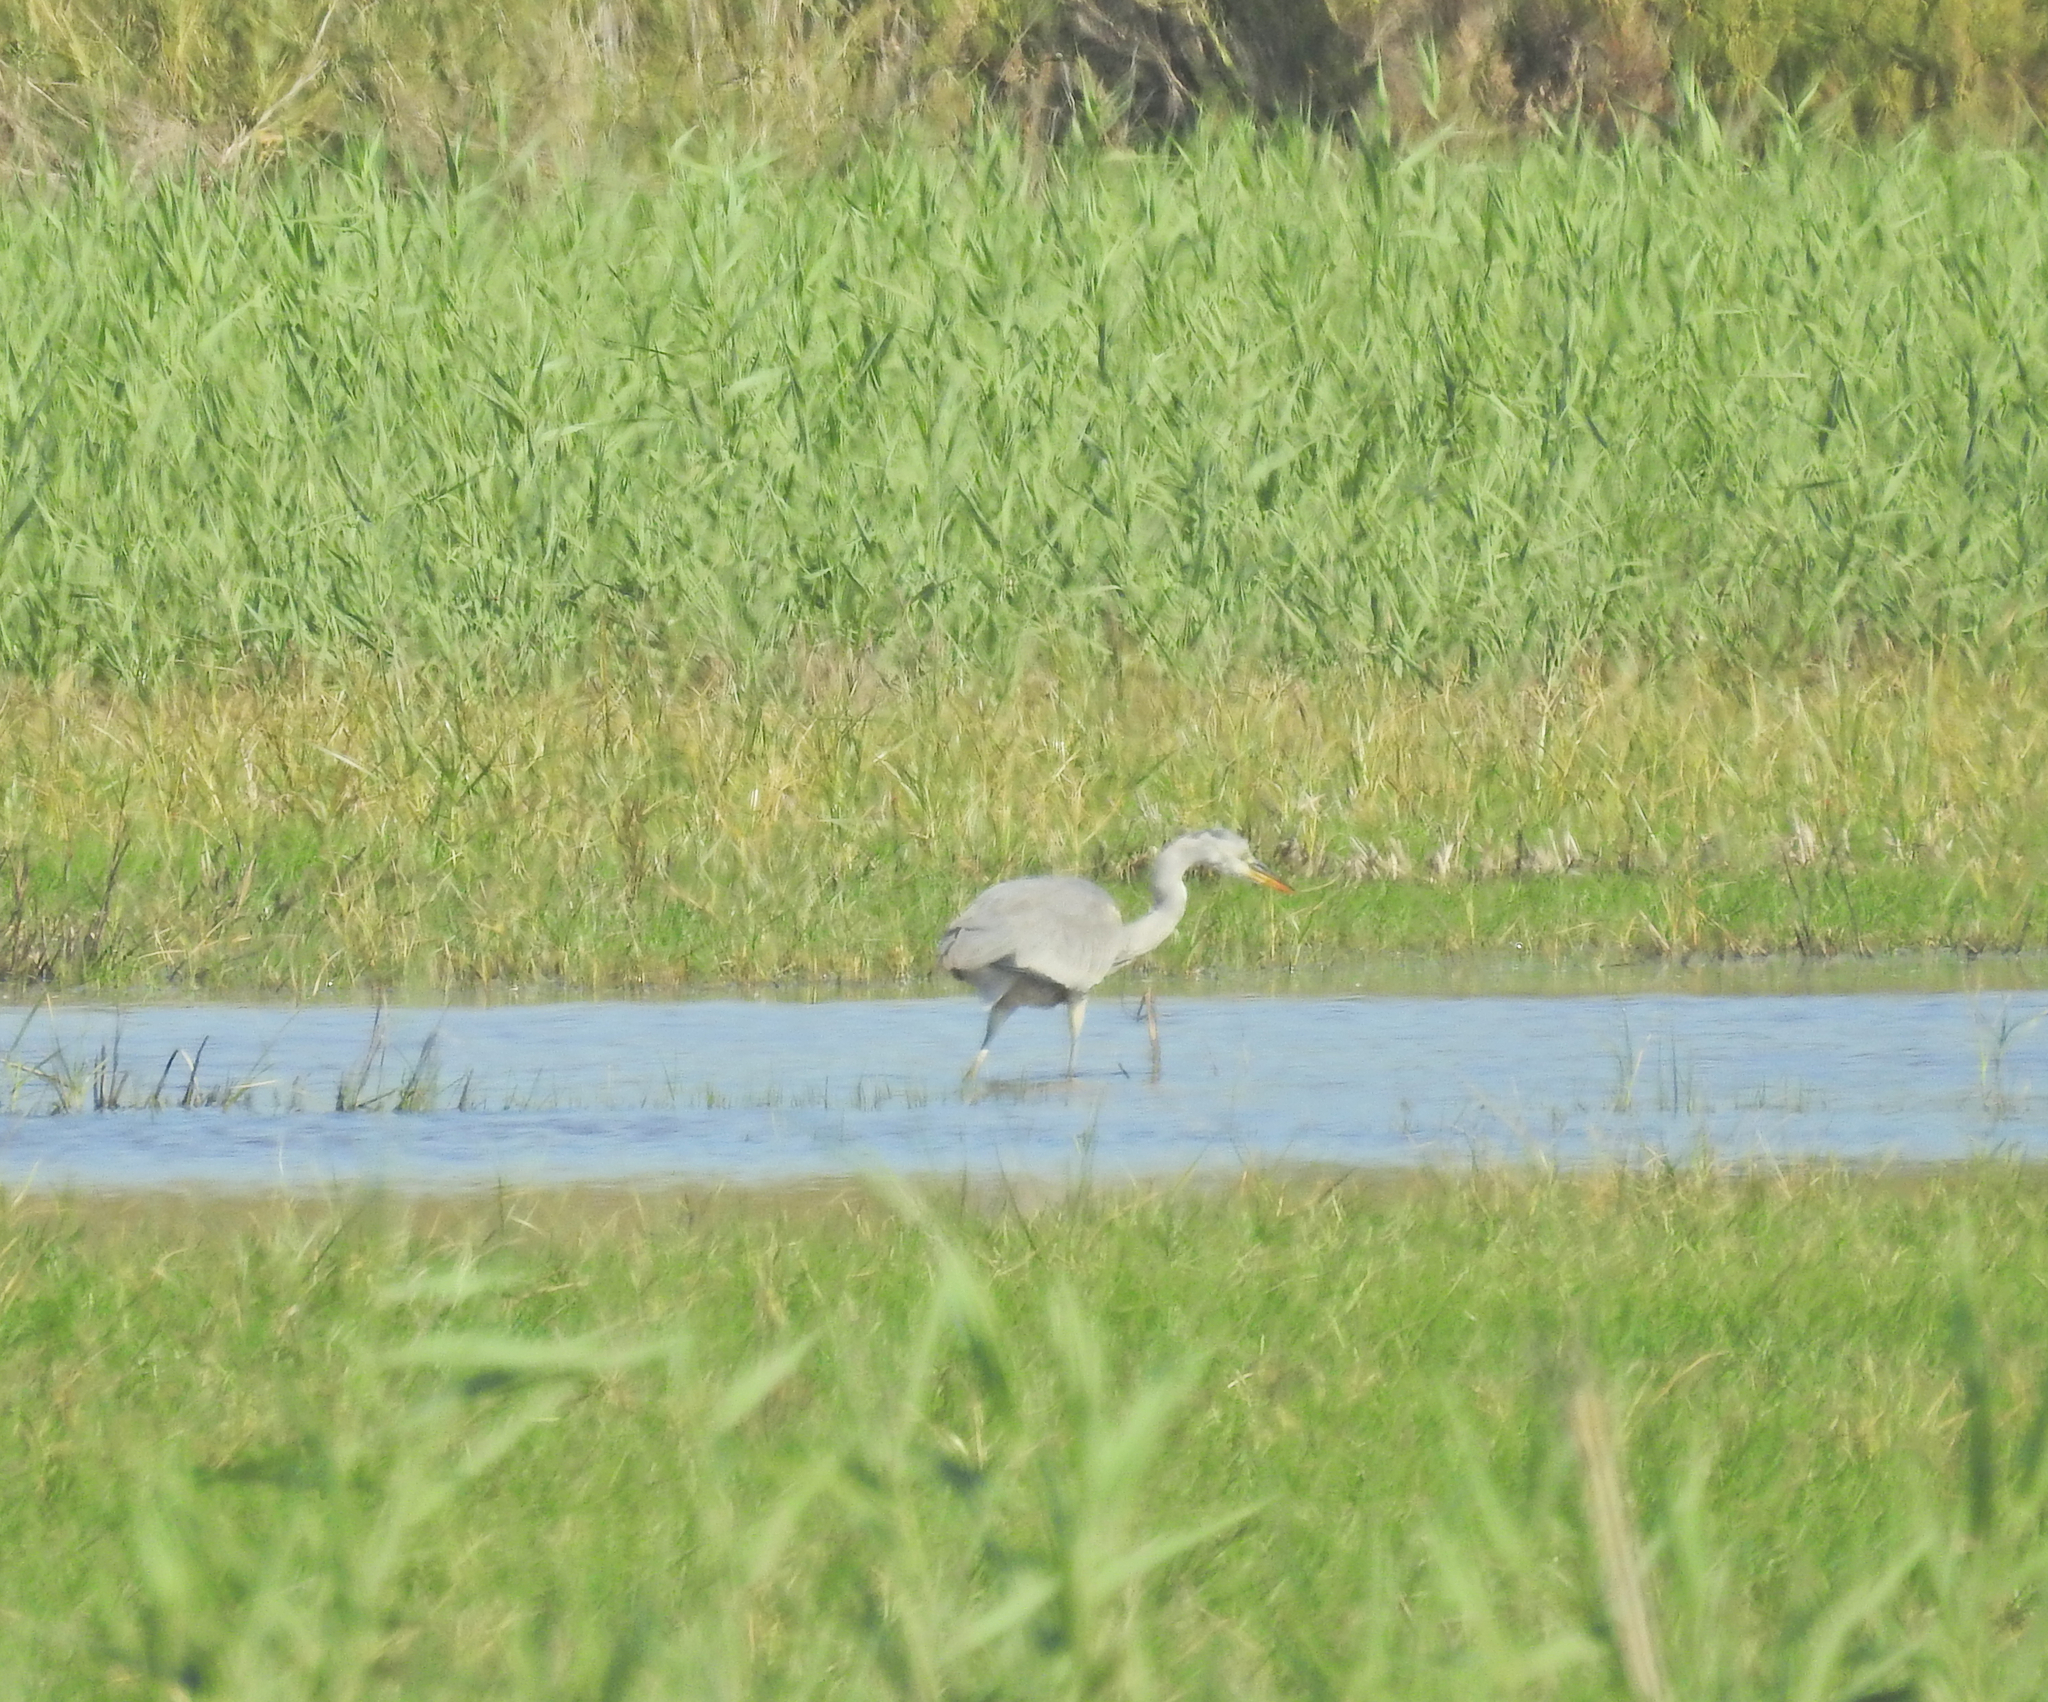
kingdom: Animalia
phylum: Chordata
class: Aves
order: Pelecaniformes
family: Ardeidae
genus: Ardea
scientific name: Ardea cinerea
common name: Grey heron
